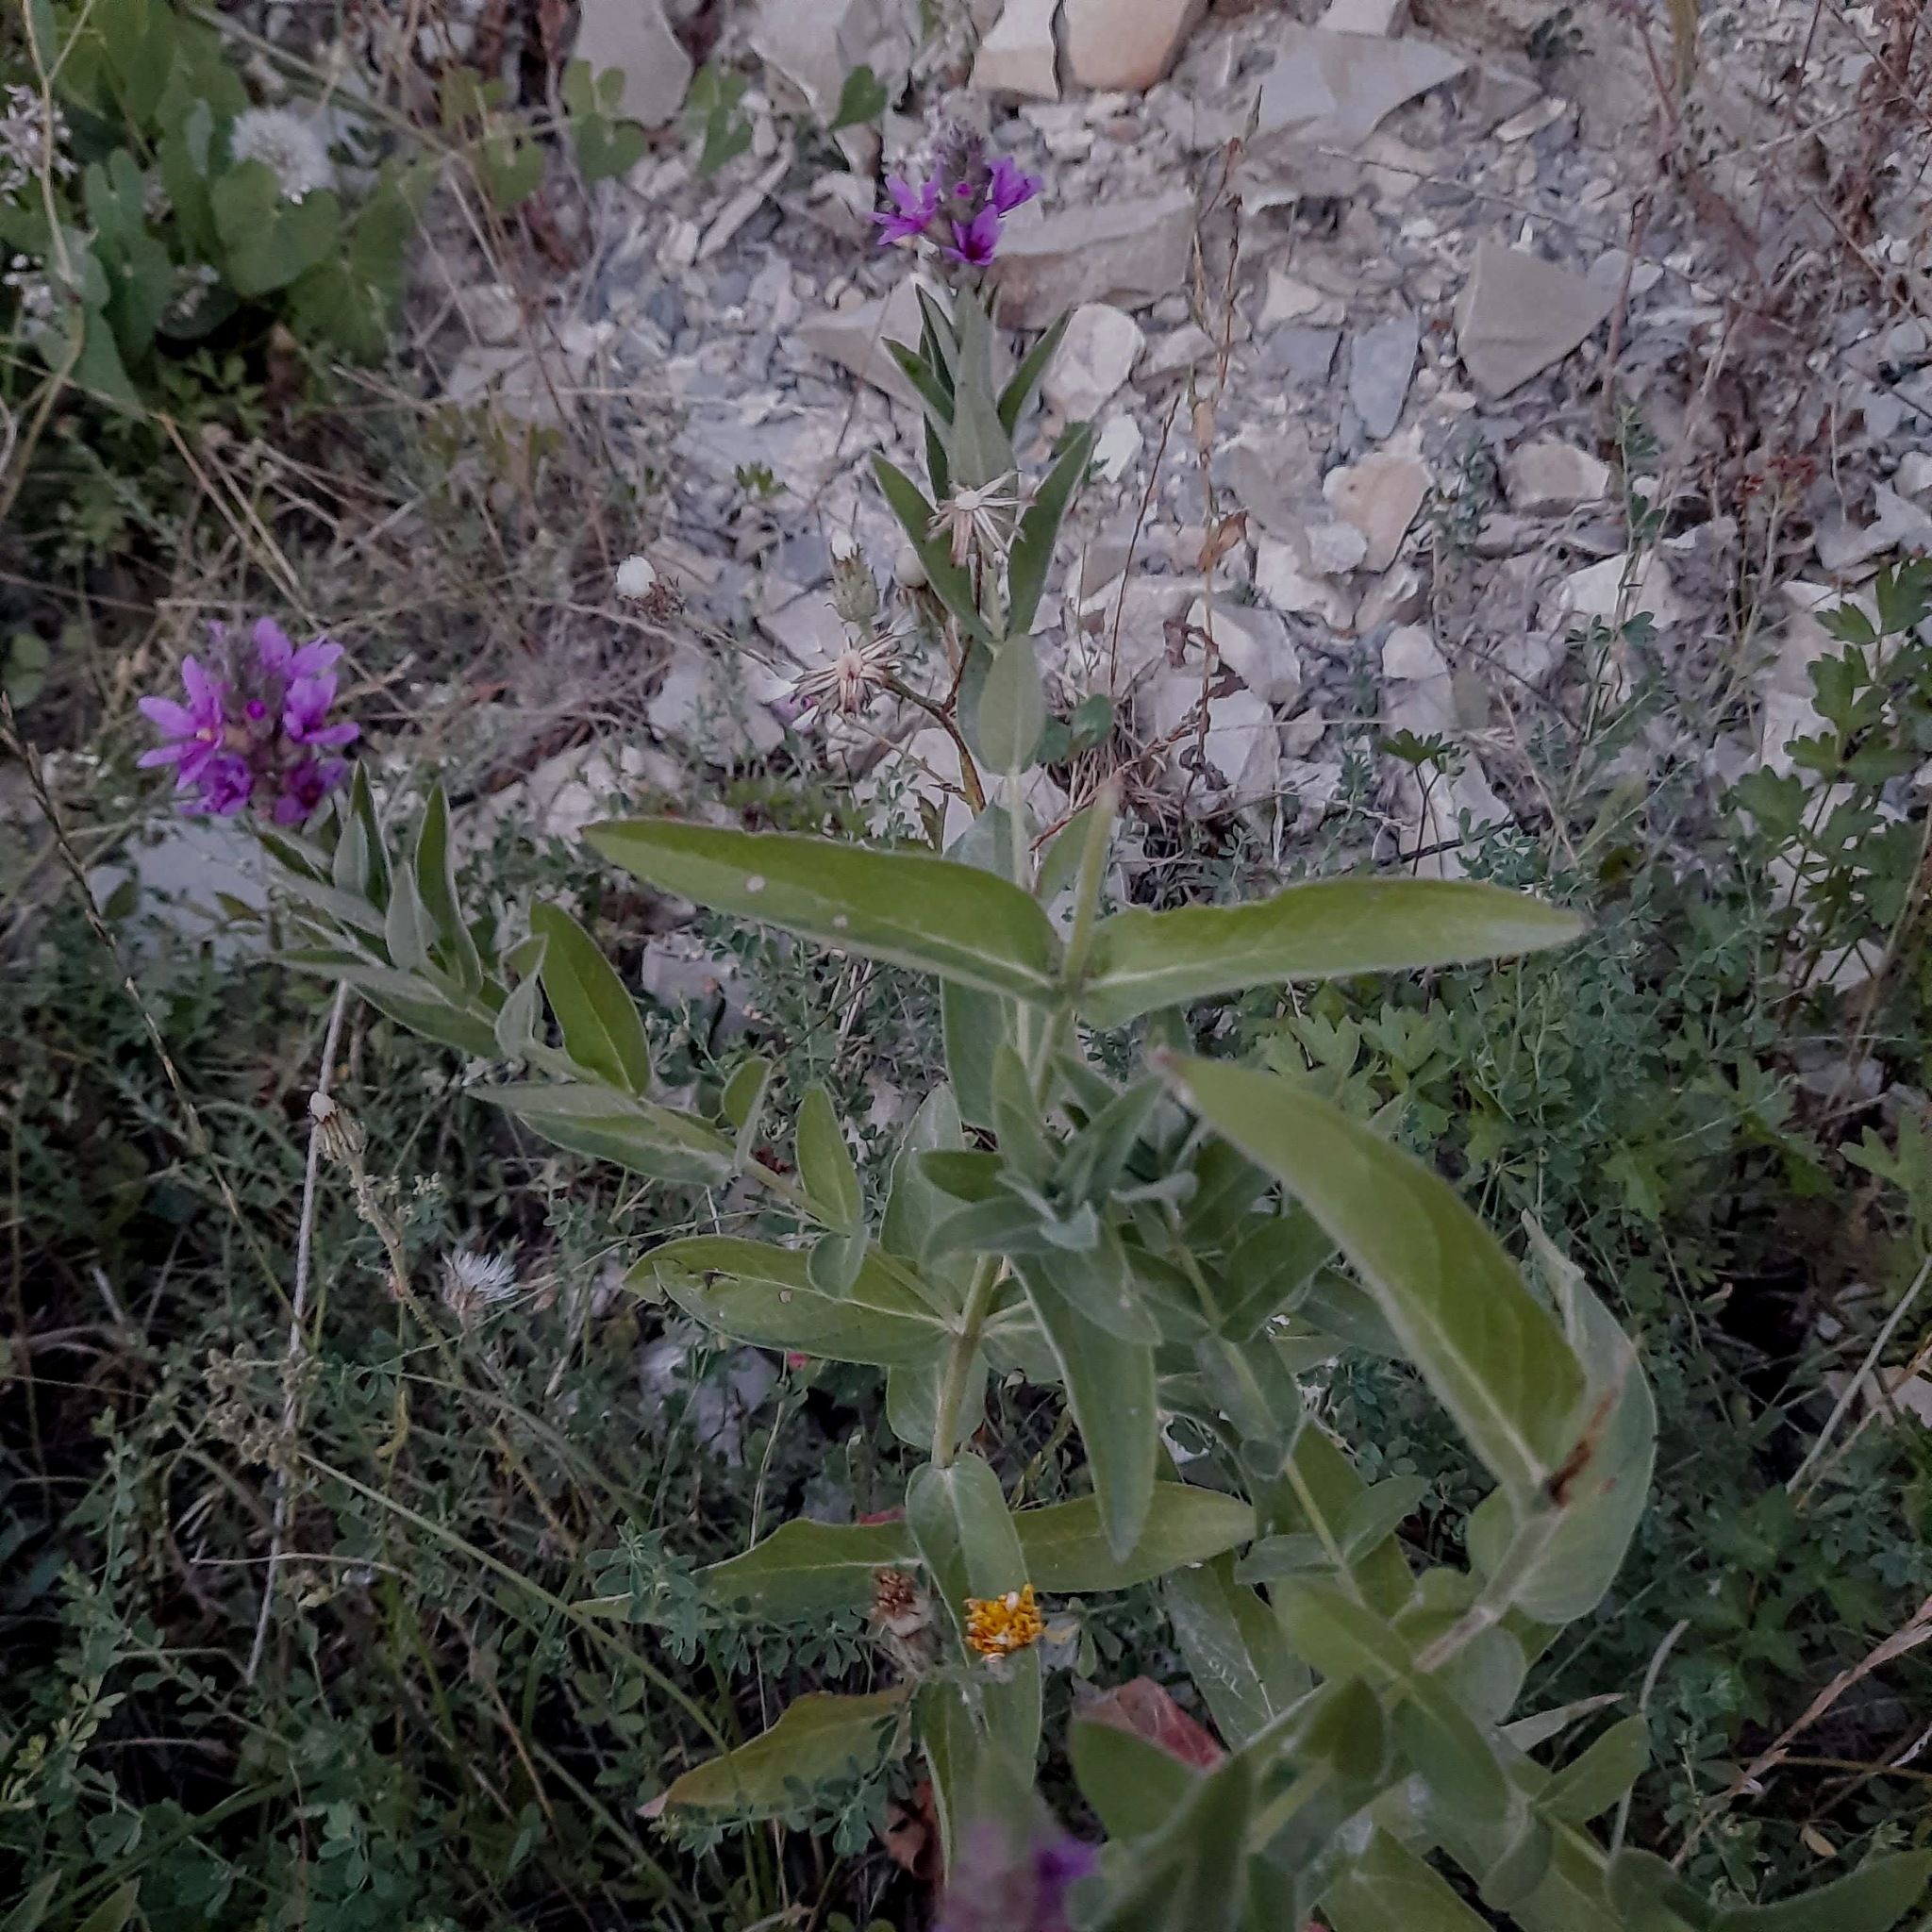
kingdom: Plantae
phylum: Tracheophyta
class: Magnoliopsida
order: Myrtales
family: Lythraceae
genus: Lythrum
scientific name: Lythrum salicaria
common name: Purple loosestrife
